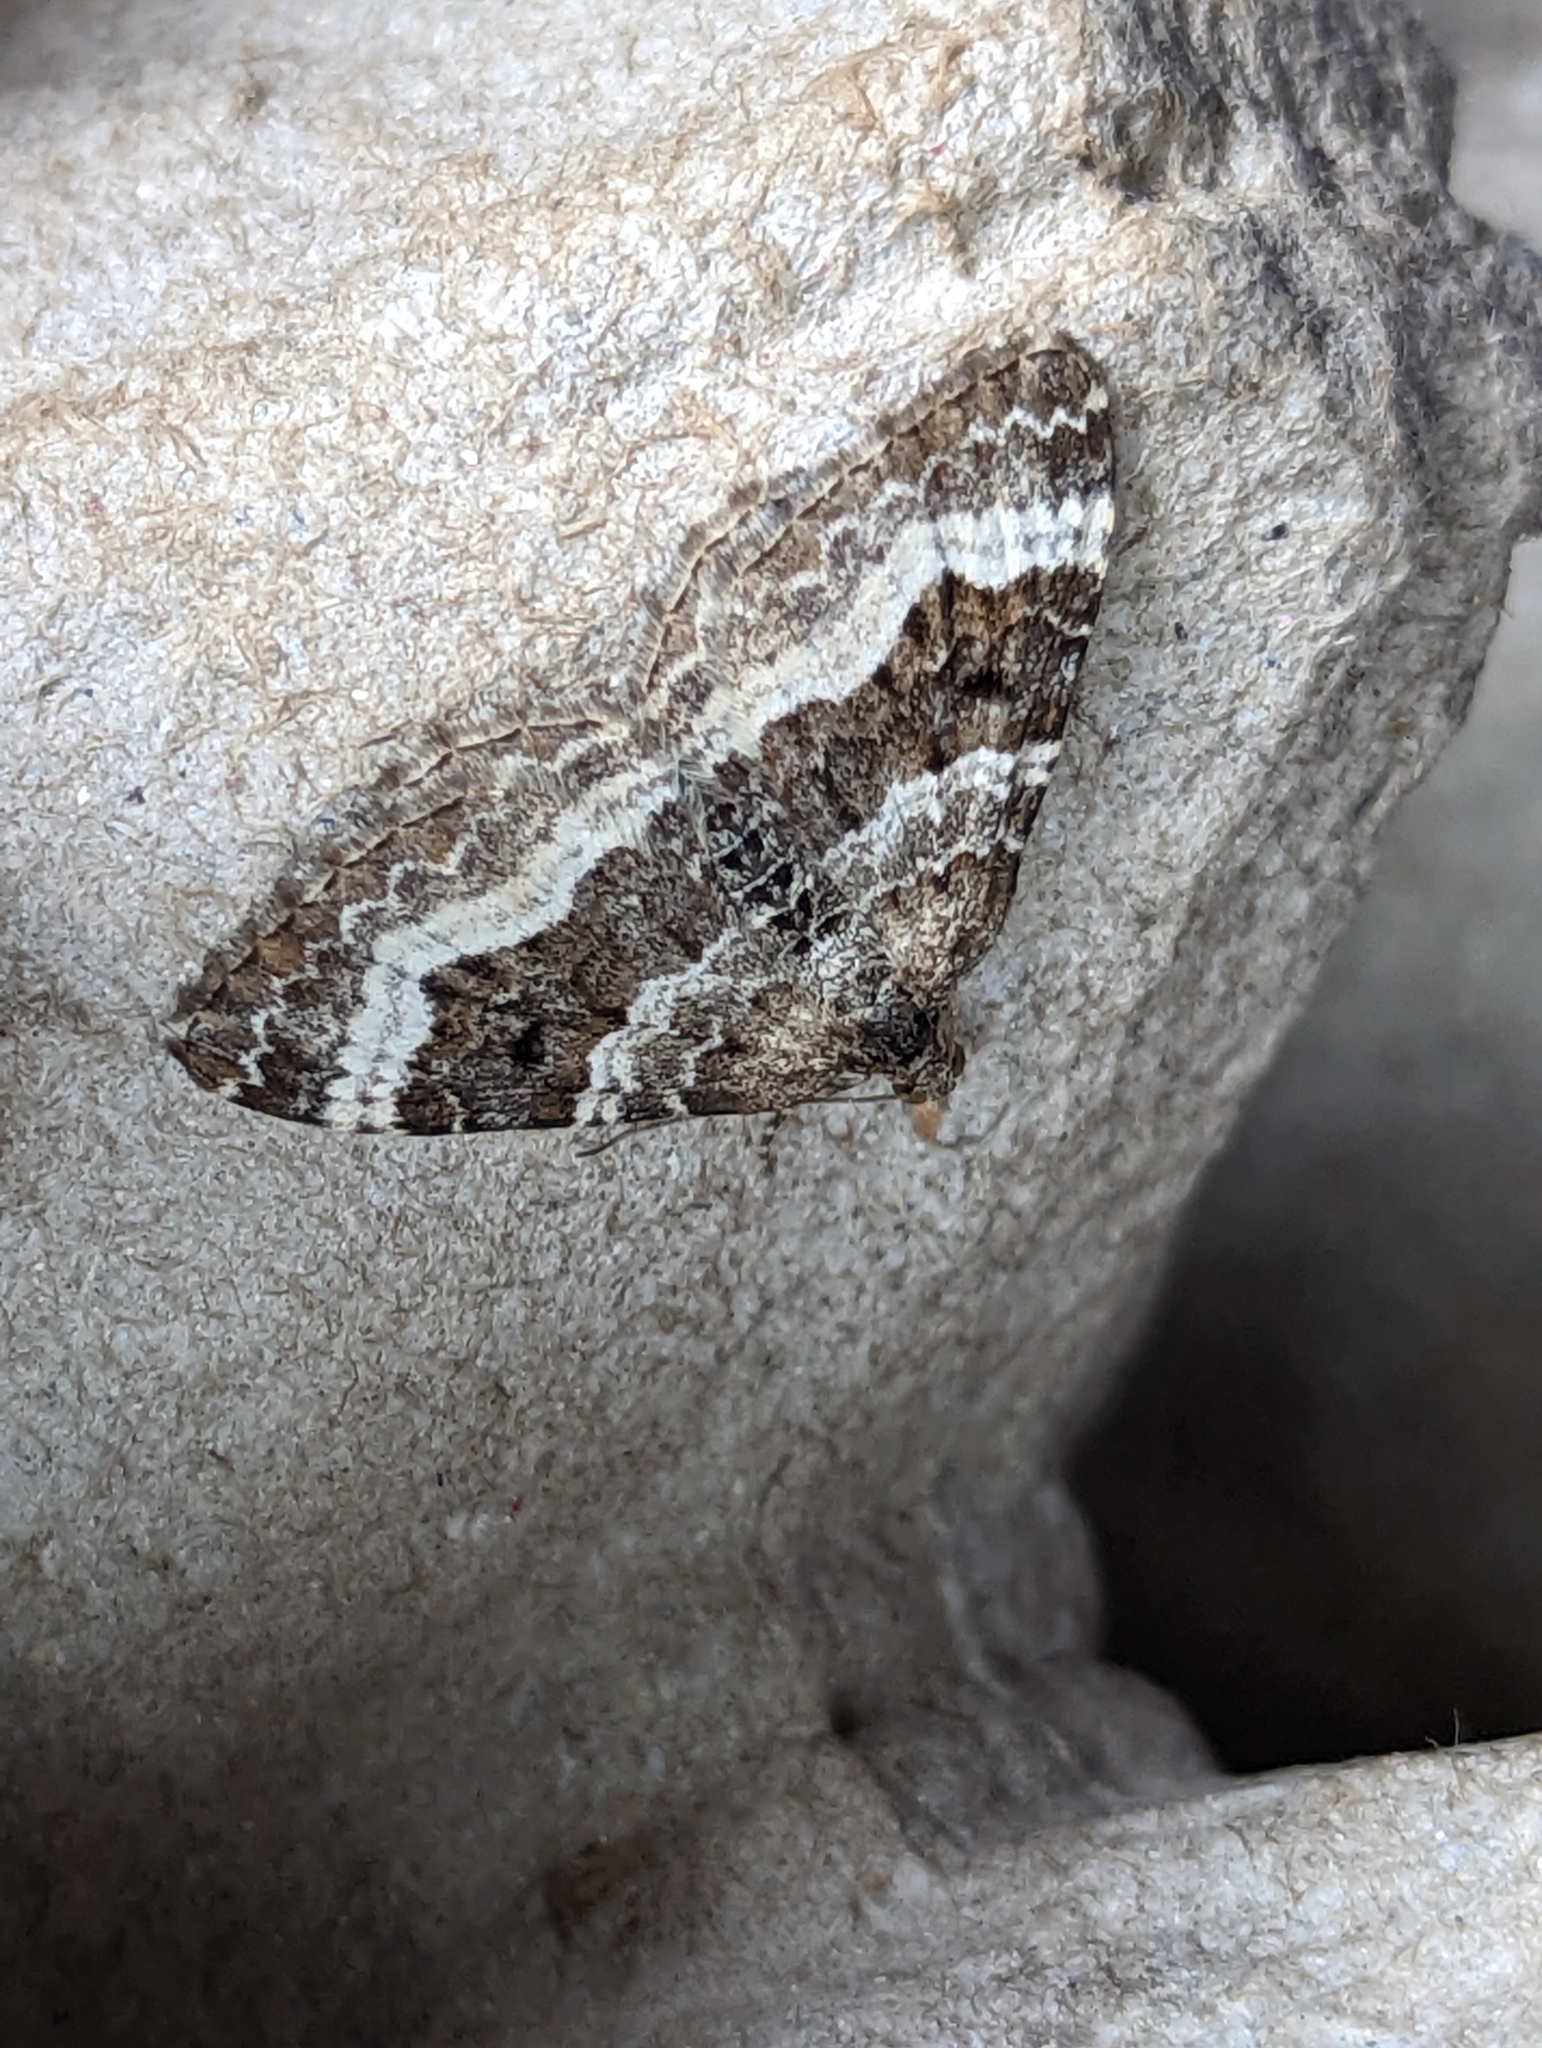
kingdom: Animalia
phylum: Arthropoda
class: Insecta
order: Lepidoptera
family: Geometridae
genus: Epirrhoe
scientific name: Epirrhoe alternata
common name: Common carpet
